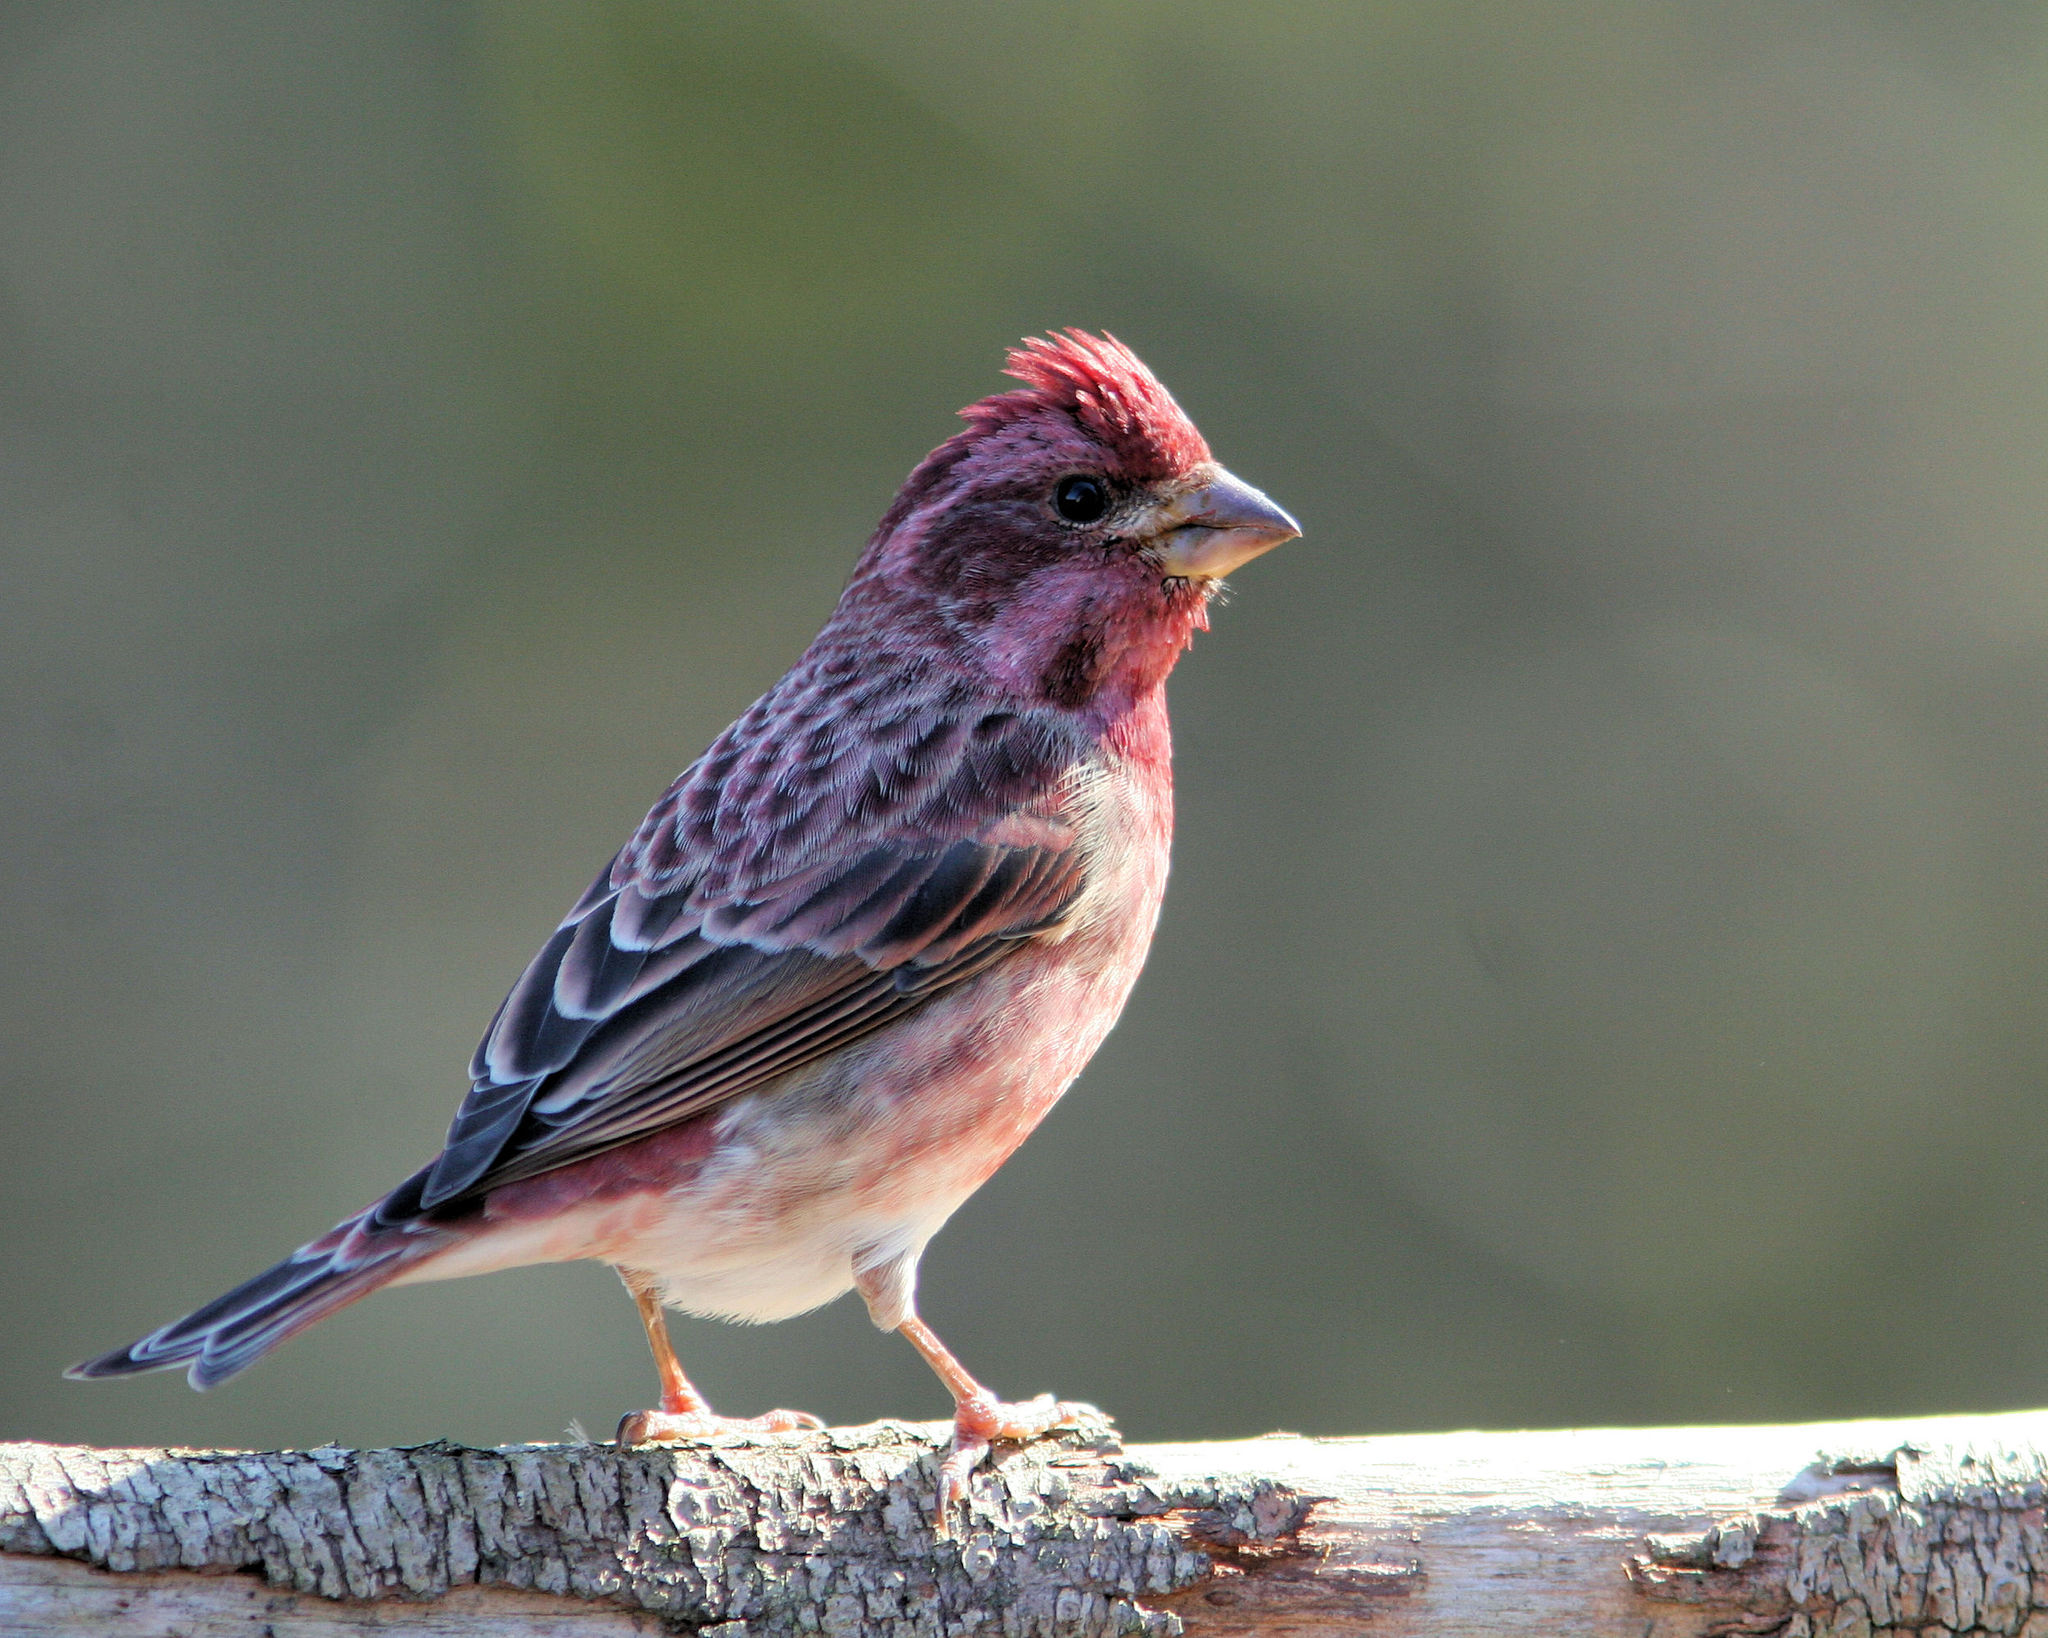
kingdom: Animalia
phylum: Chordata
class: Aves
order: Passeriformes
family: Fringillidae
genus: Haemorhous
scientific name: Haemorhous purpureus
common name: Purple finch
